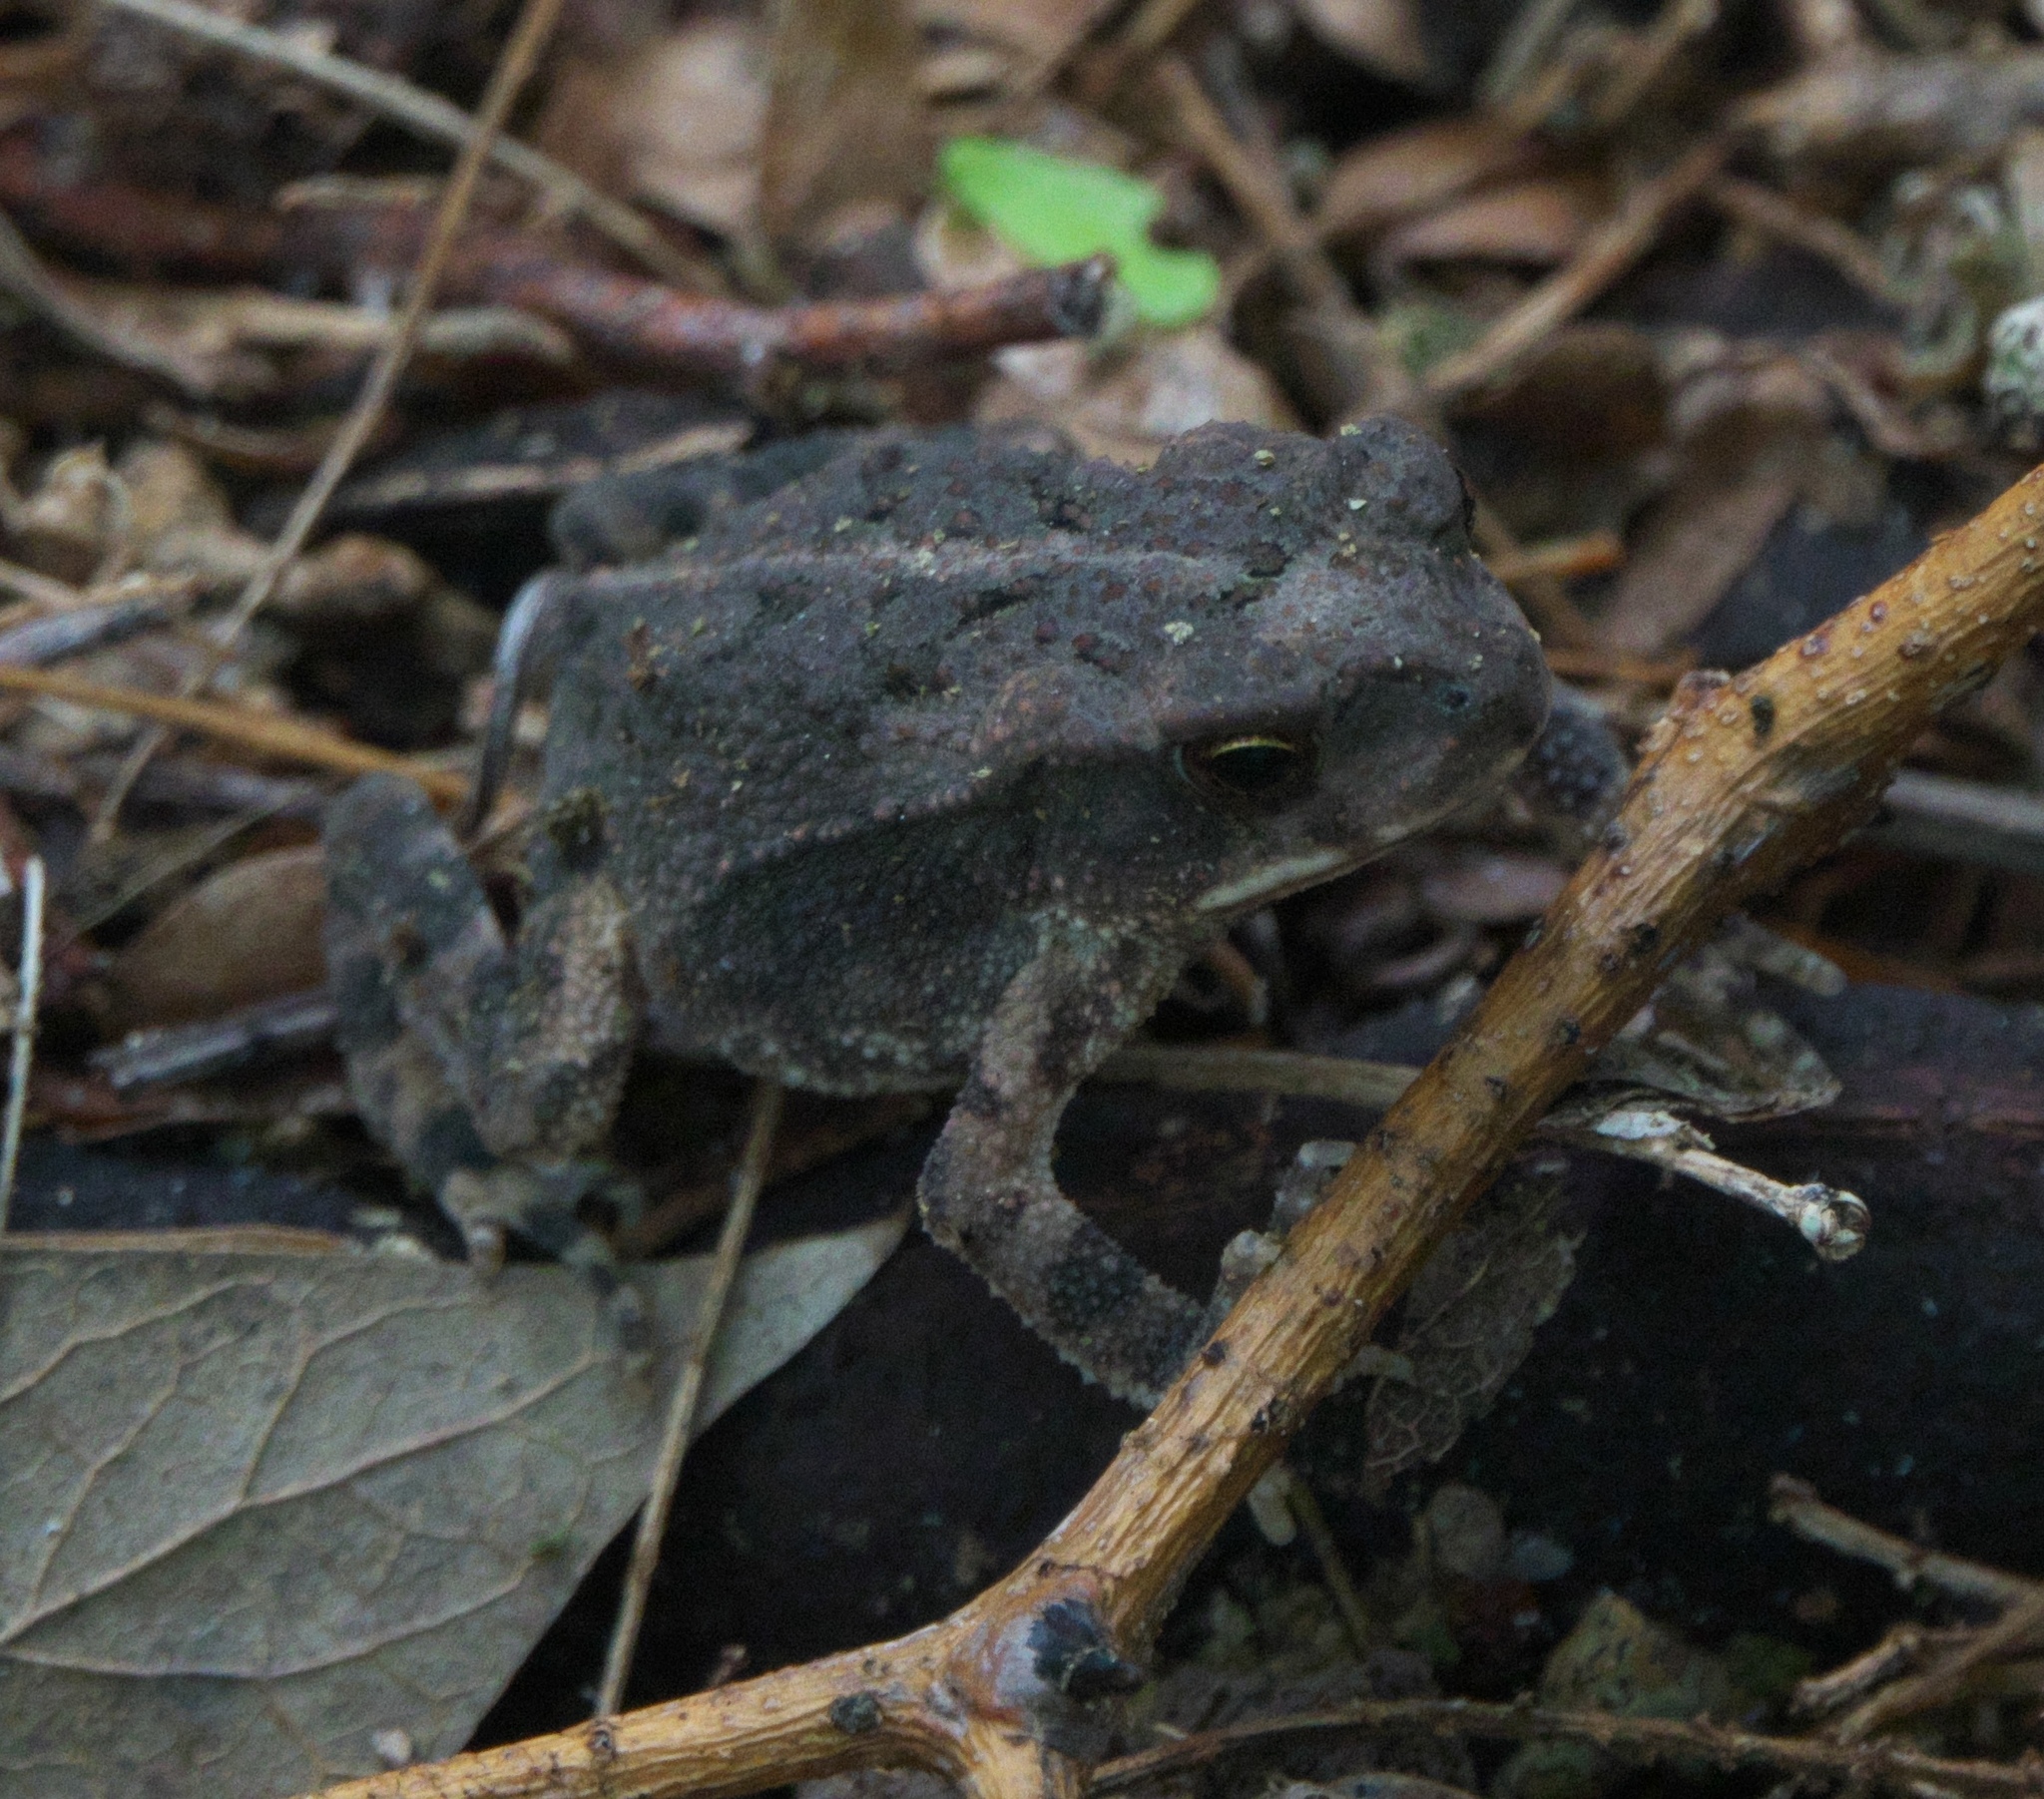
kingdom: Animalia
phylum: Chordata
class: Amphibia
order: Anura
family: Bufonidae
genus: Incilius
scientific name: Incilius nebulifer
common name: Gulf coast toad
